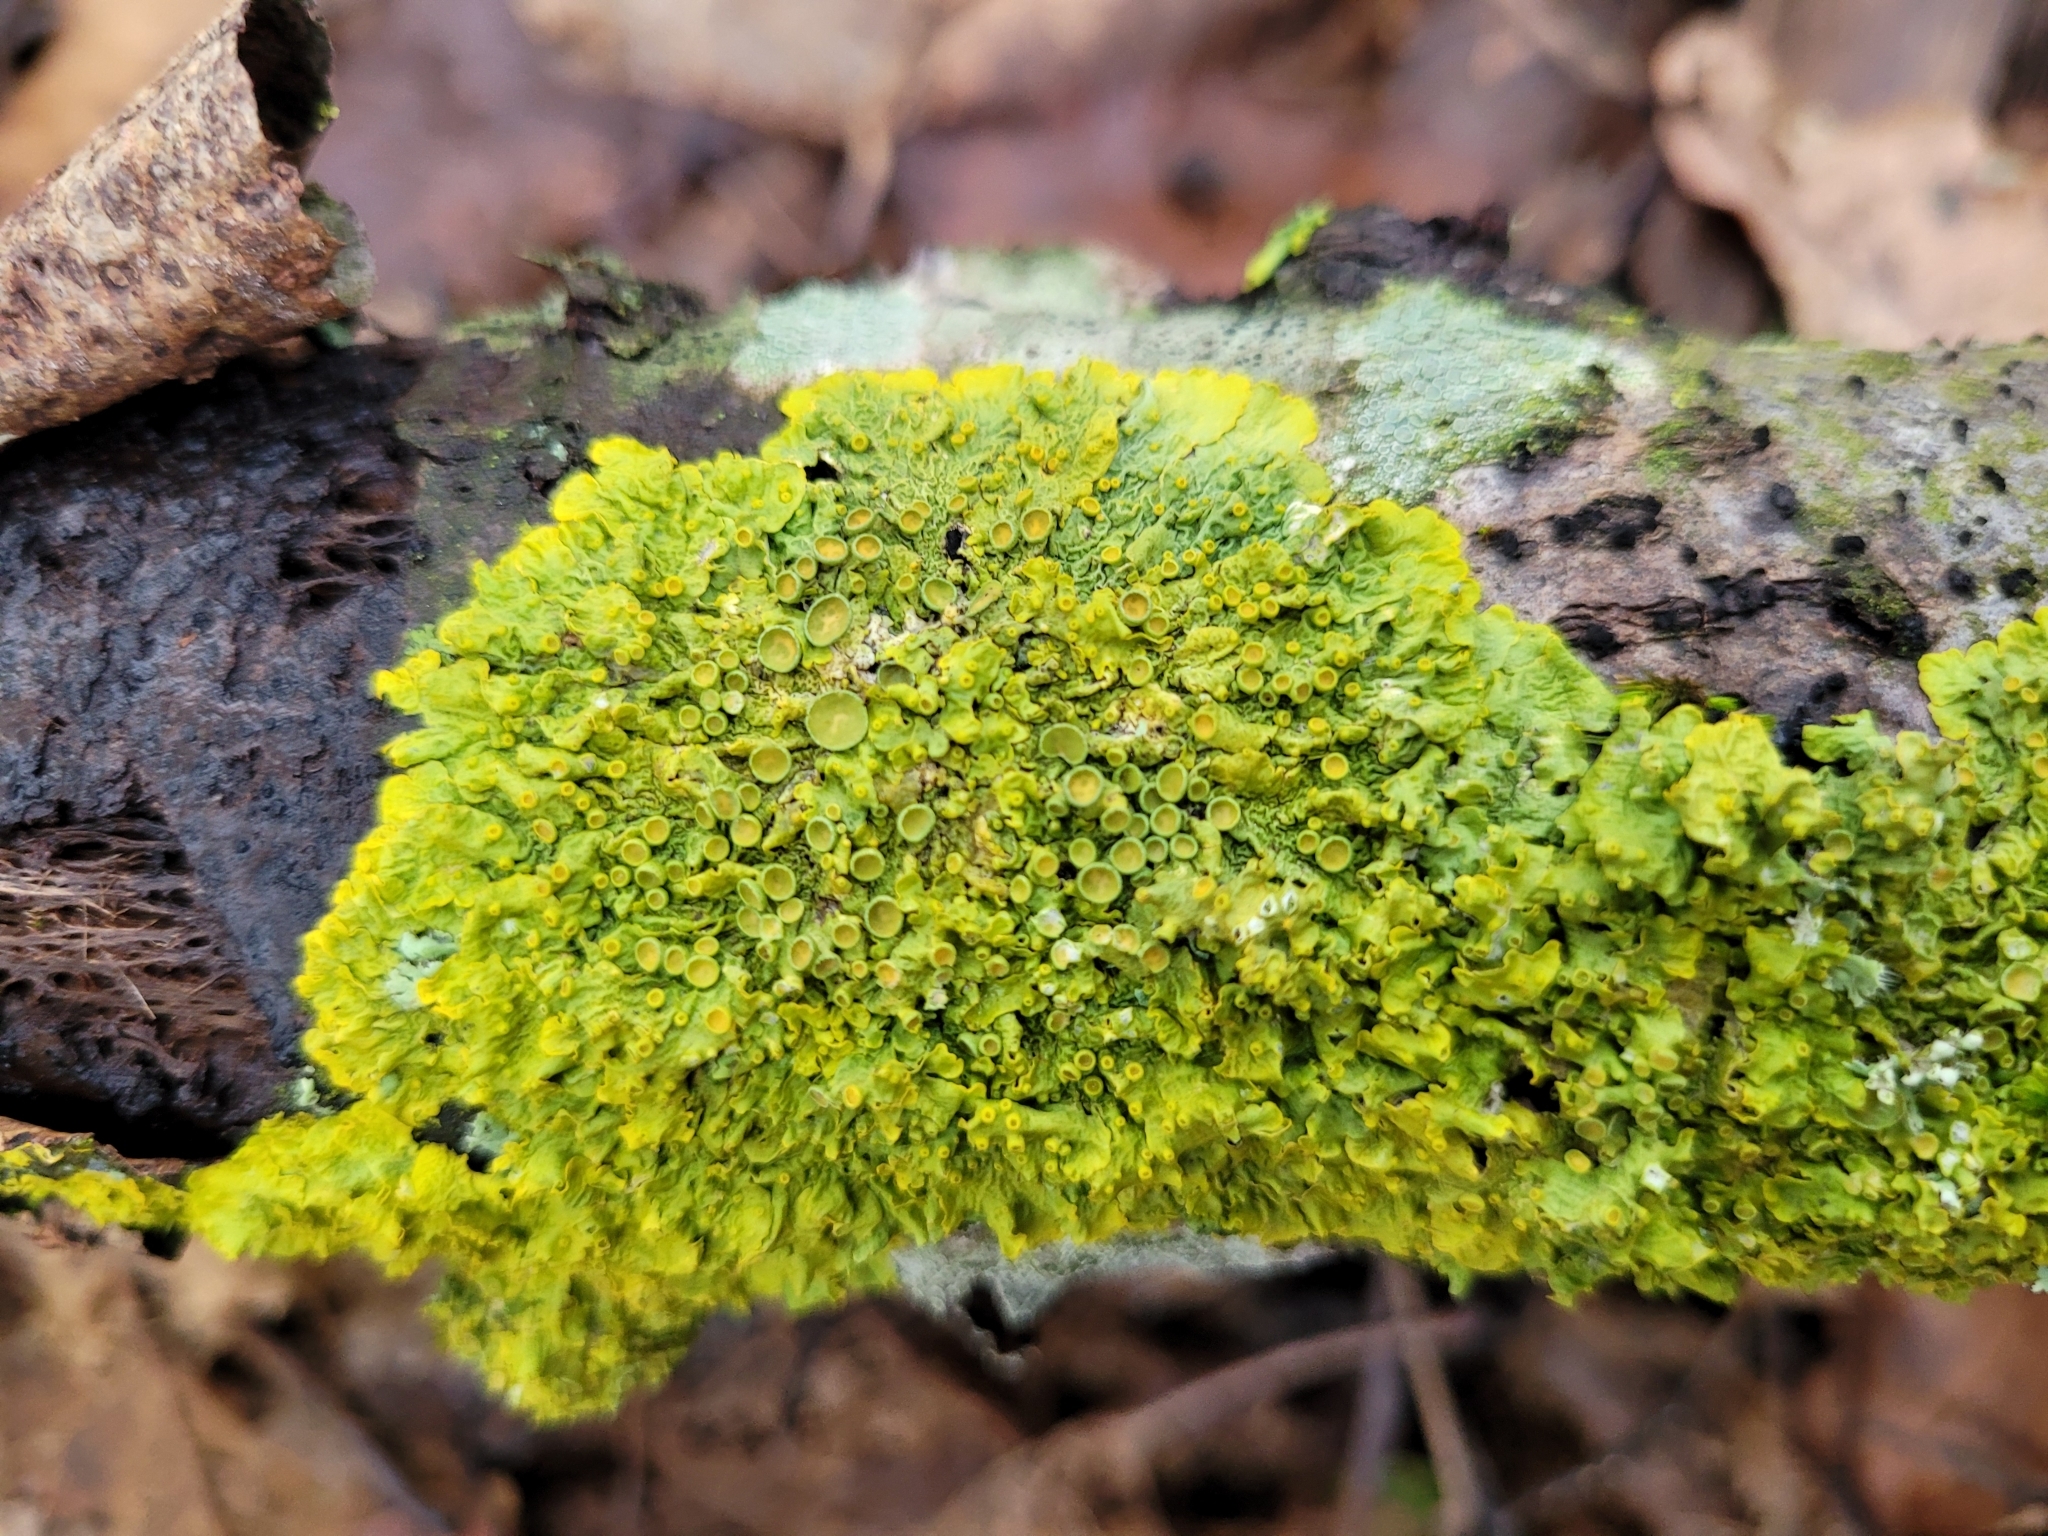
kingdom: Fungi
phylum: Ascomycota
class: Lecanoromycetes
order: Teloschistales
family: Teloschistaceae
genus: Xanthoria
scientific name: Xanthoria parietina
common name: Common orange lichen
